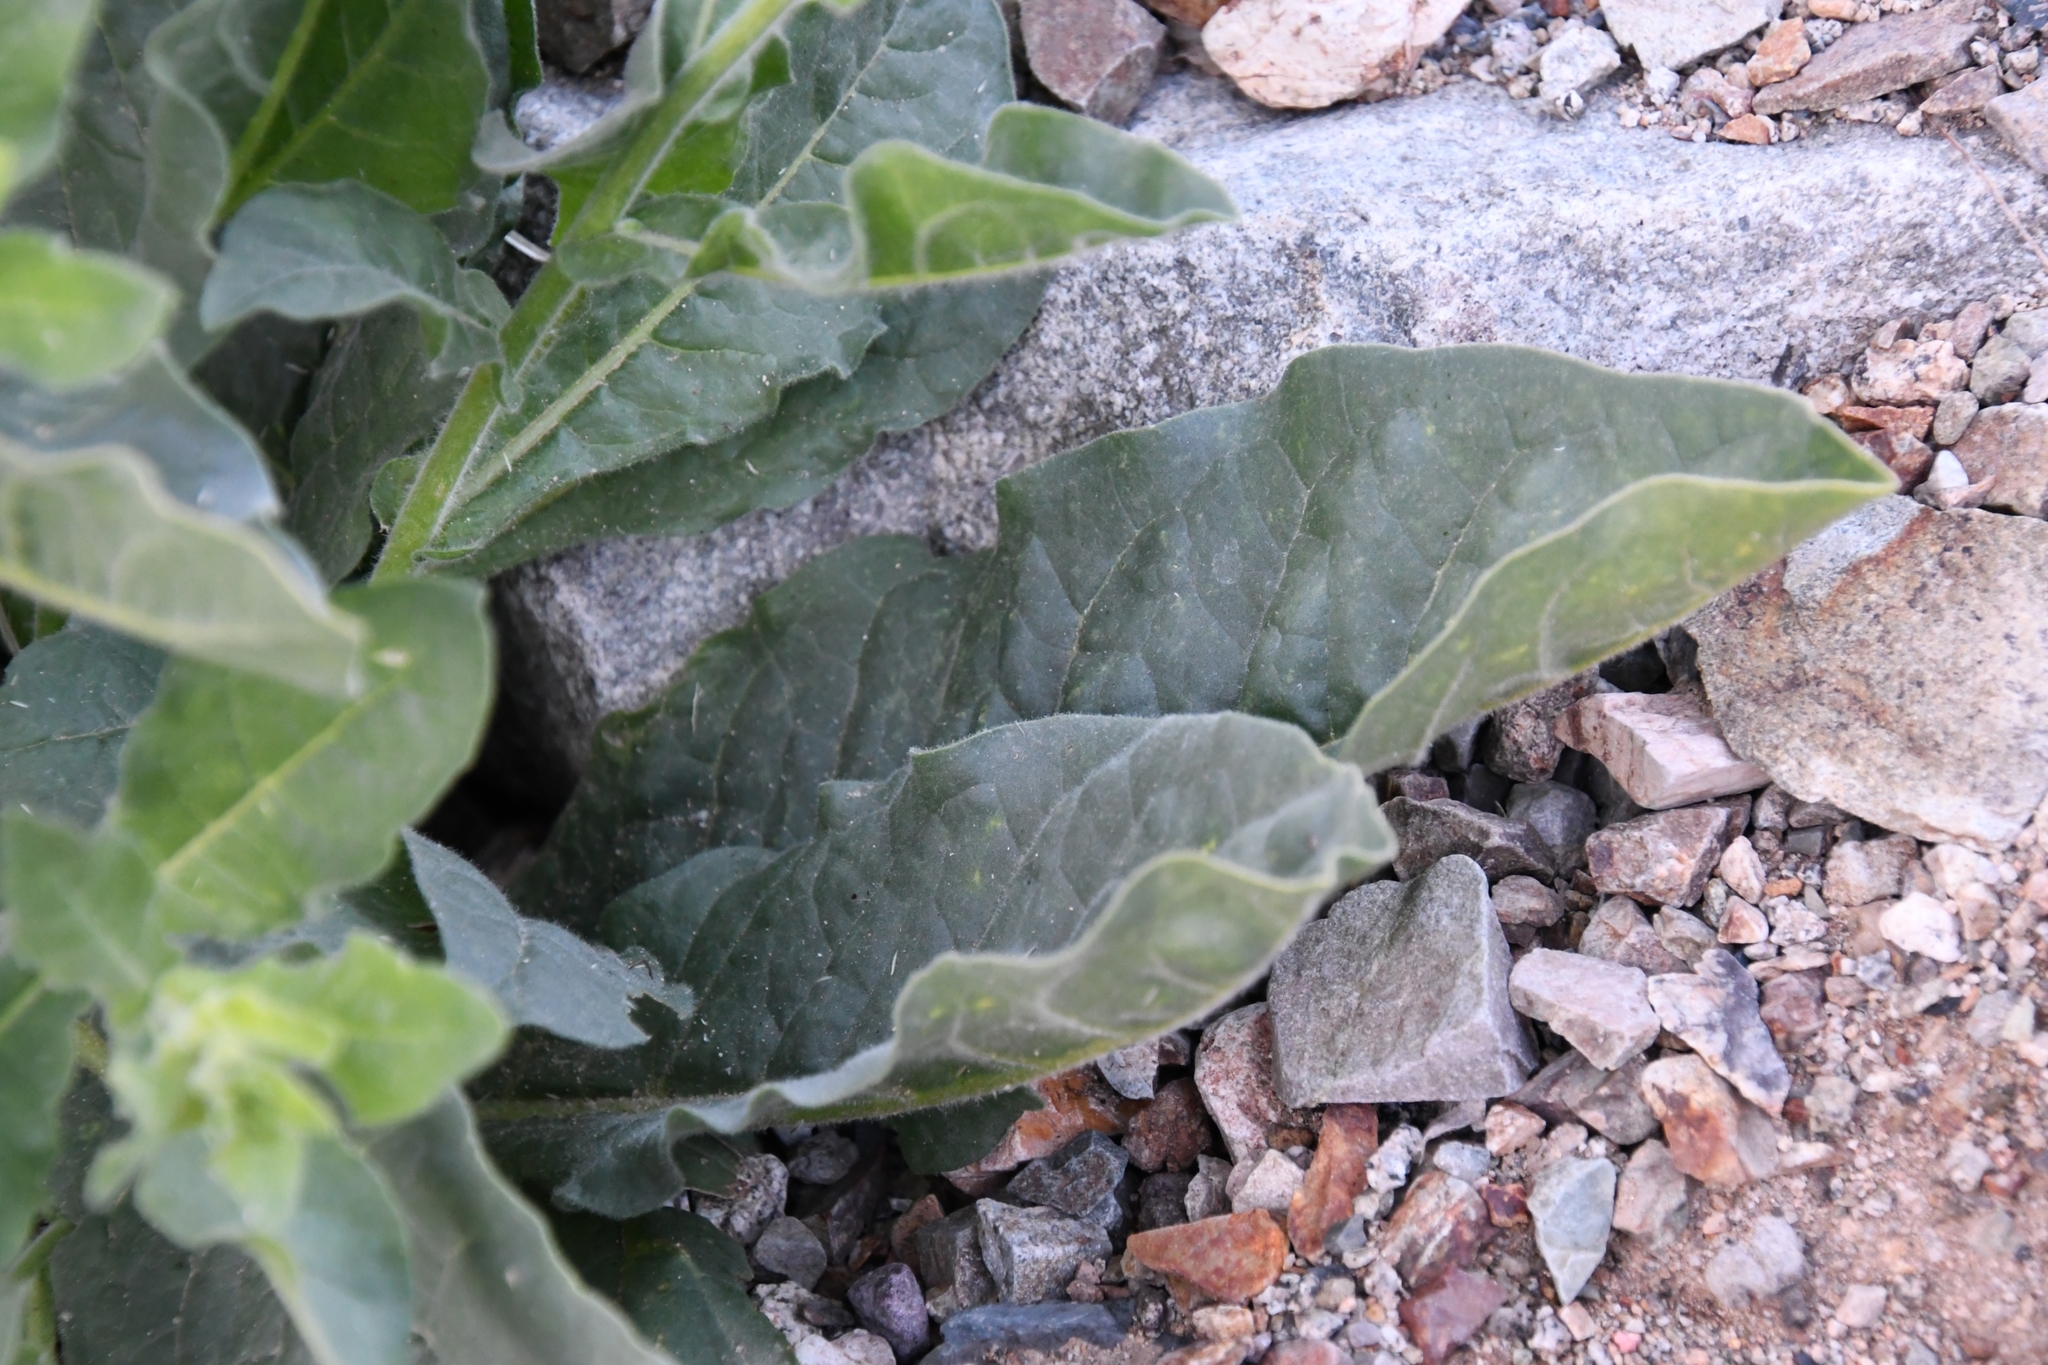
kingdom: Plantae
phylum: Tracheophyta
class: Magnoliopsida
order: Solanales
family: Solanaceae
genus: Nicotiana
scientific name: Nicotiana obtusifolia
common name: Desert tobacco
